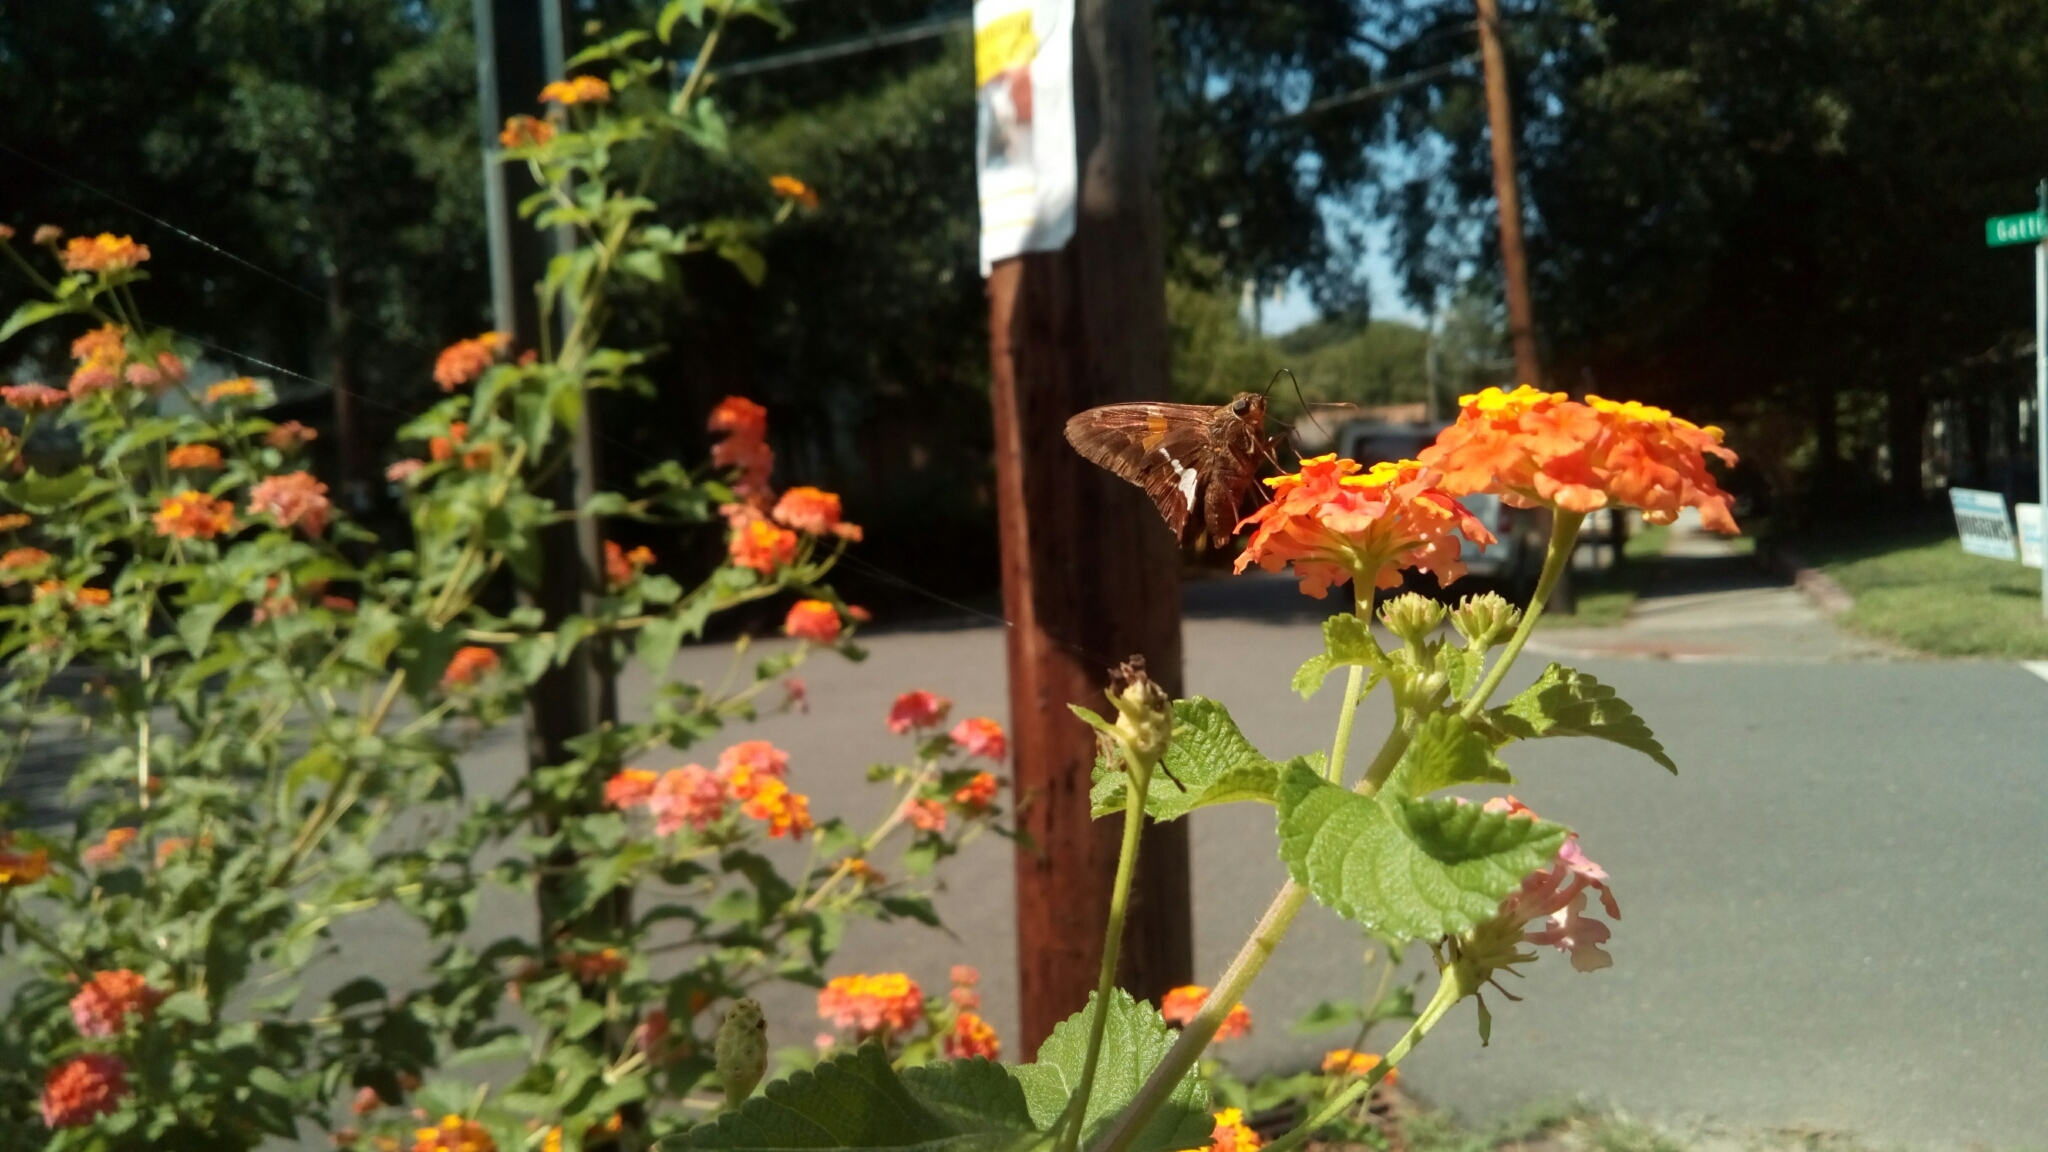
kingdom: Animalia
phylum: Arthropoda
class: Insecta
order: Lepidoptera
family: Hesperiidae
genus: Epargyreus
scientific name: Epargyreus clarus
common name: Silver-spotted skipper
